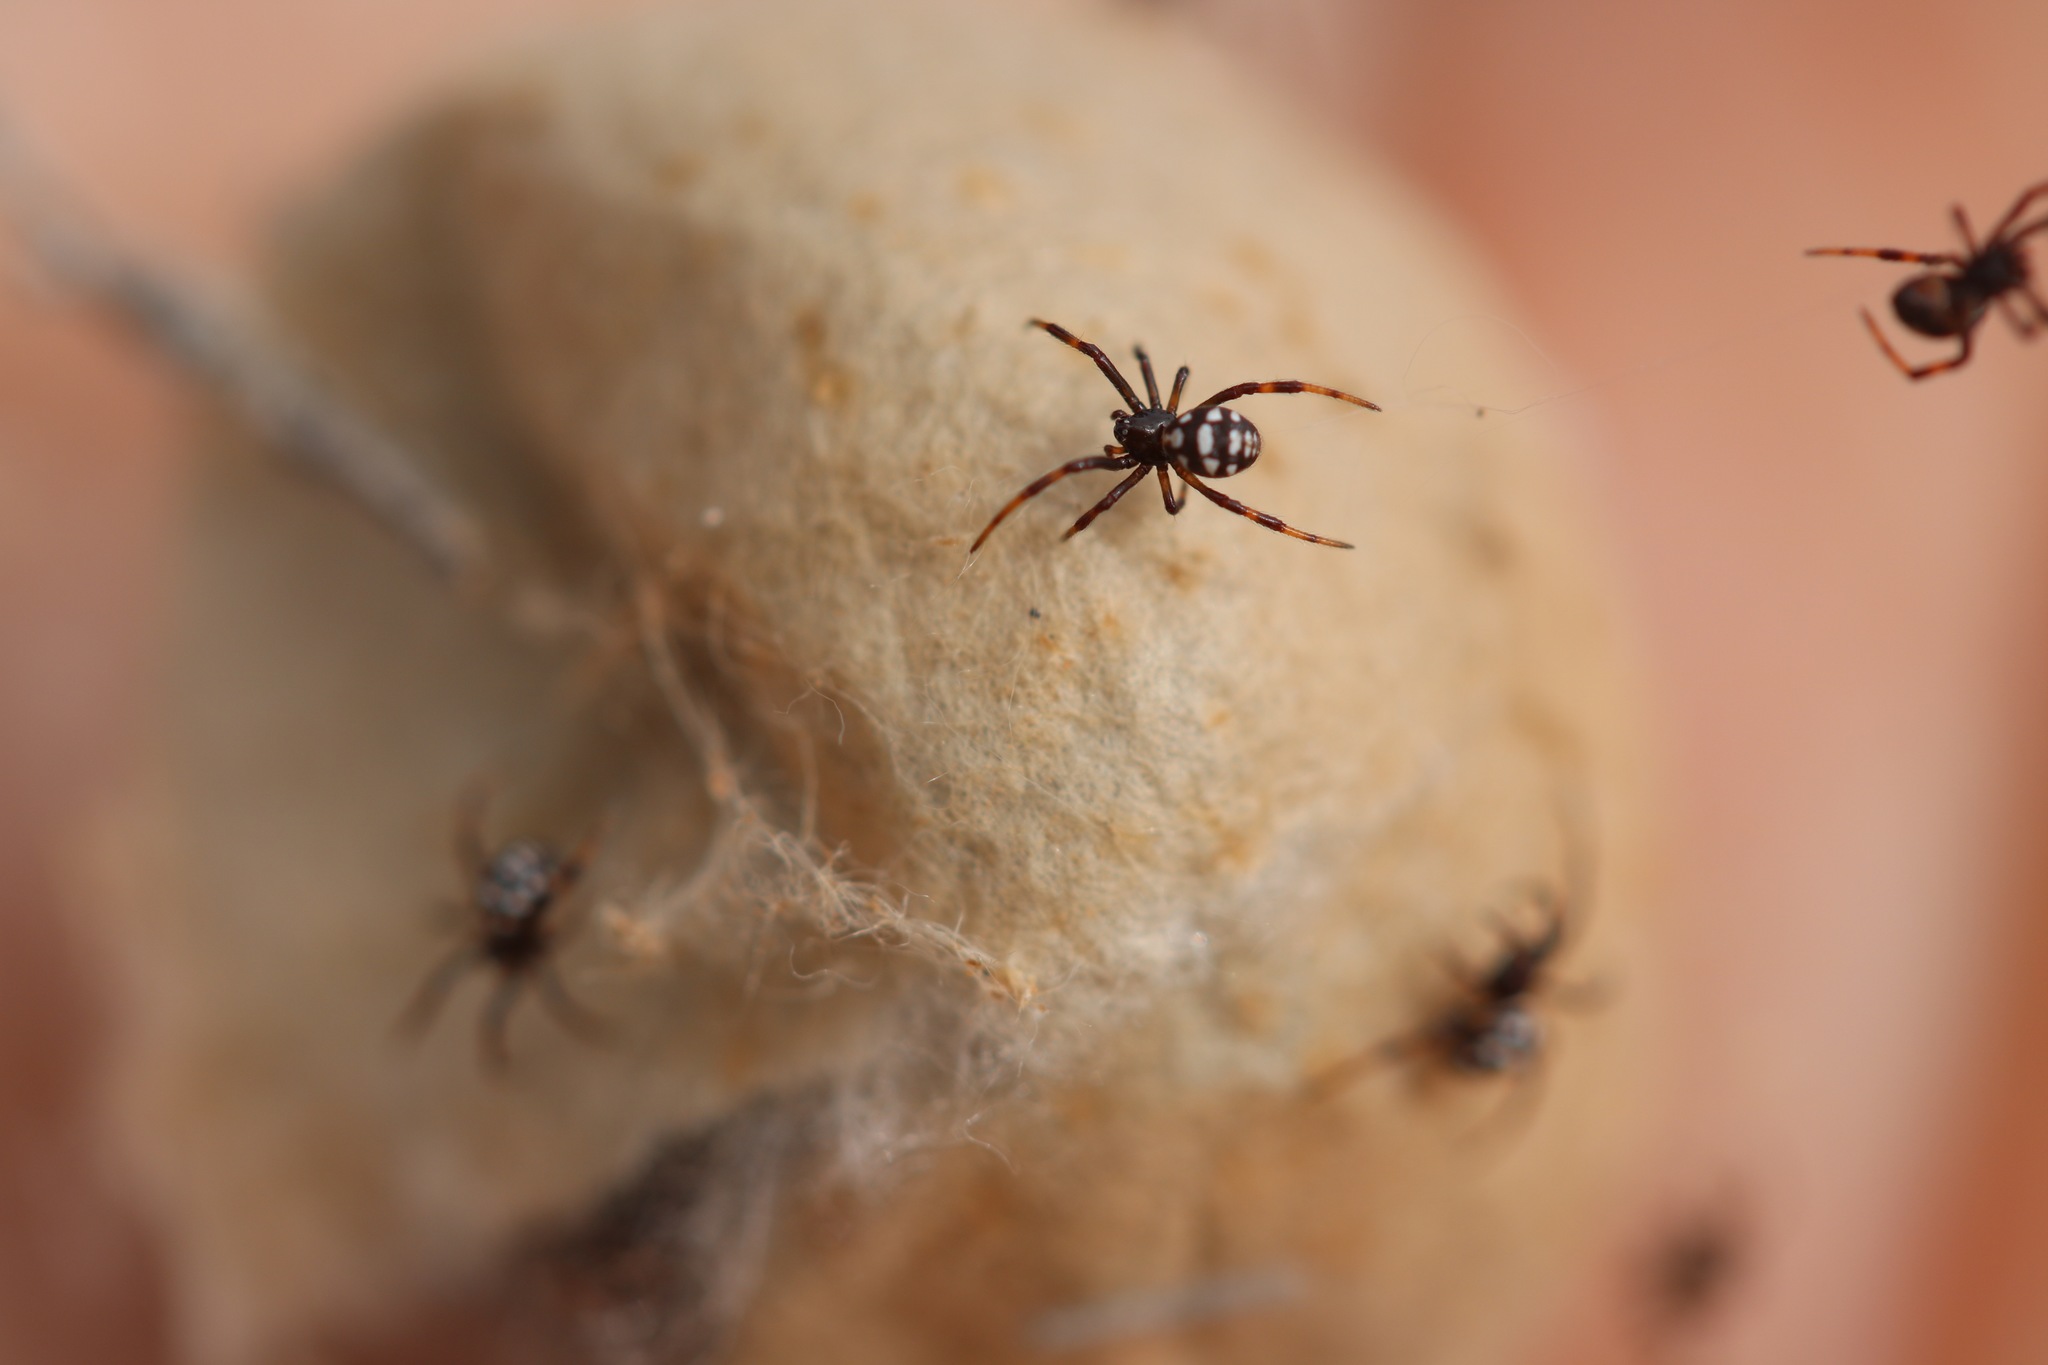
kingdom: Animalia
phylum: Arthropoda
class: Arachnida
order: Araneae
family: Theridiidae
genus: Latrodectus
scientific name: Latrodectus tredecimguttatus
